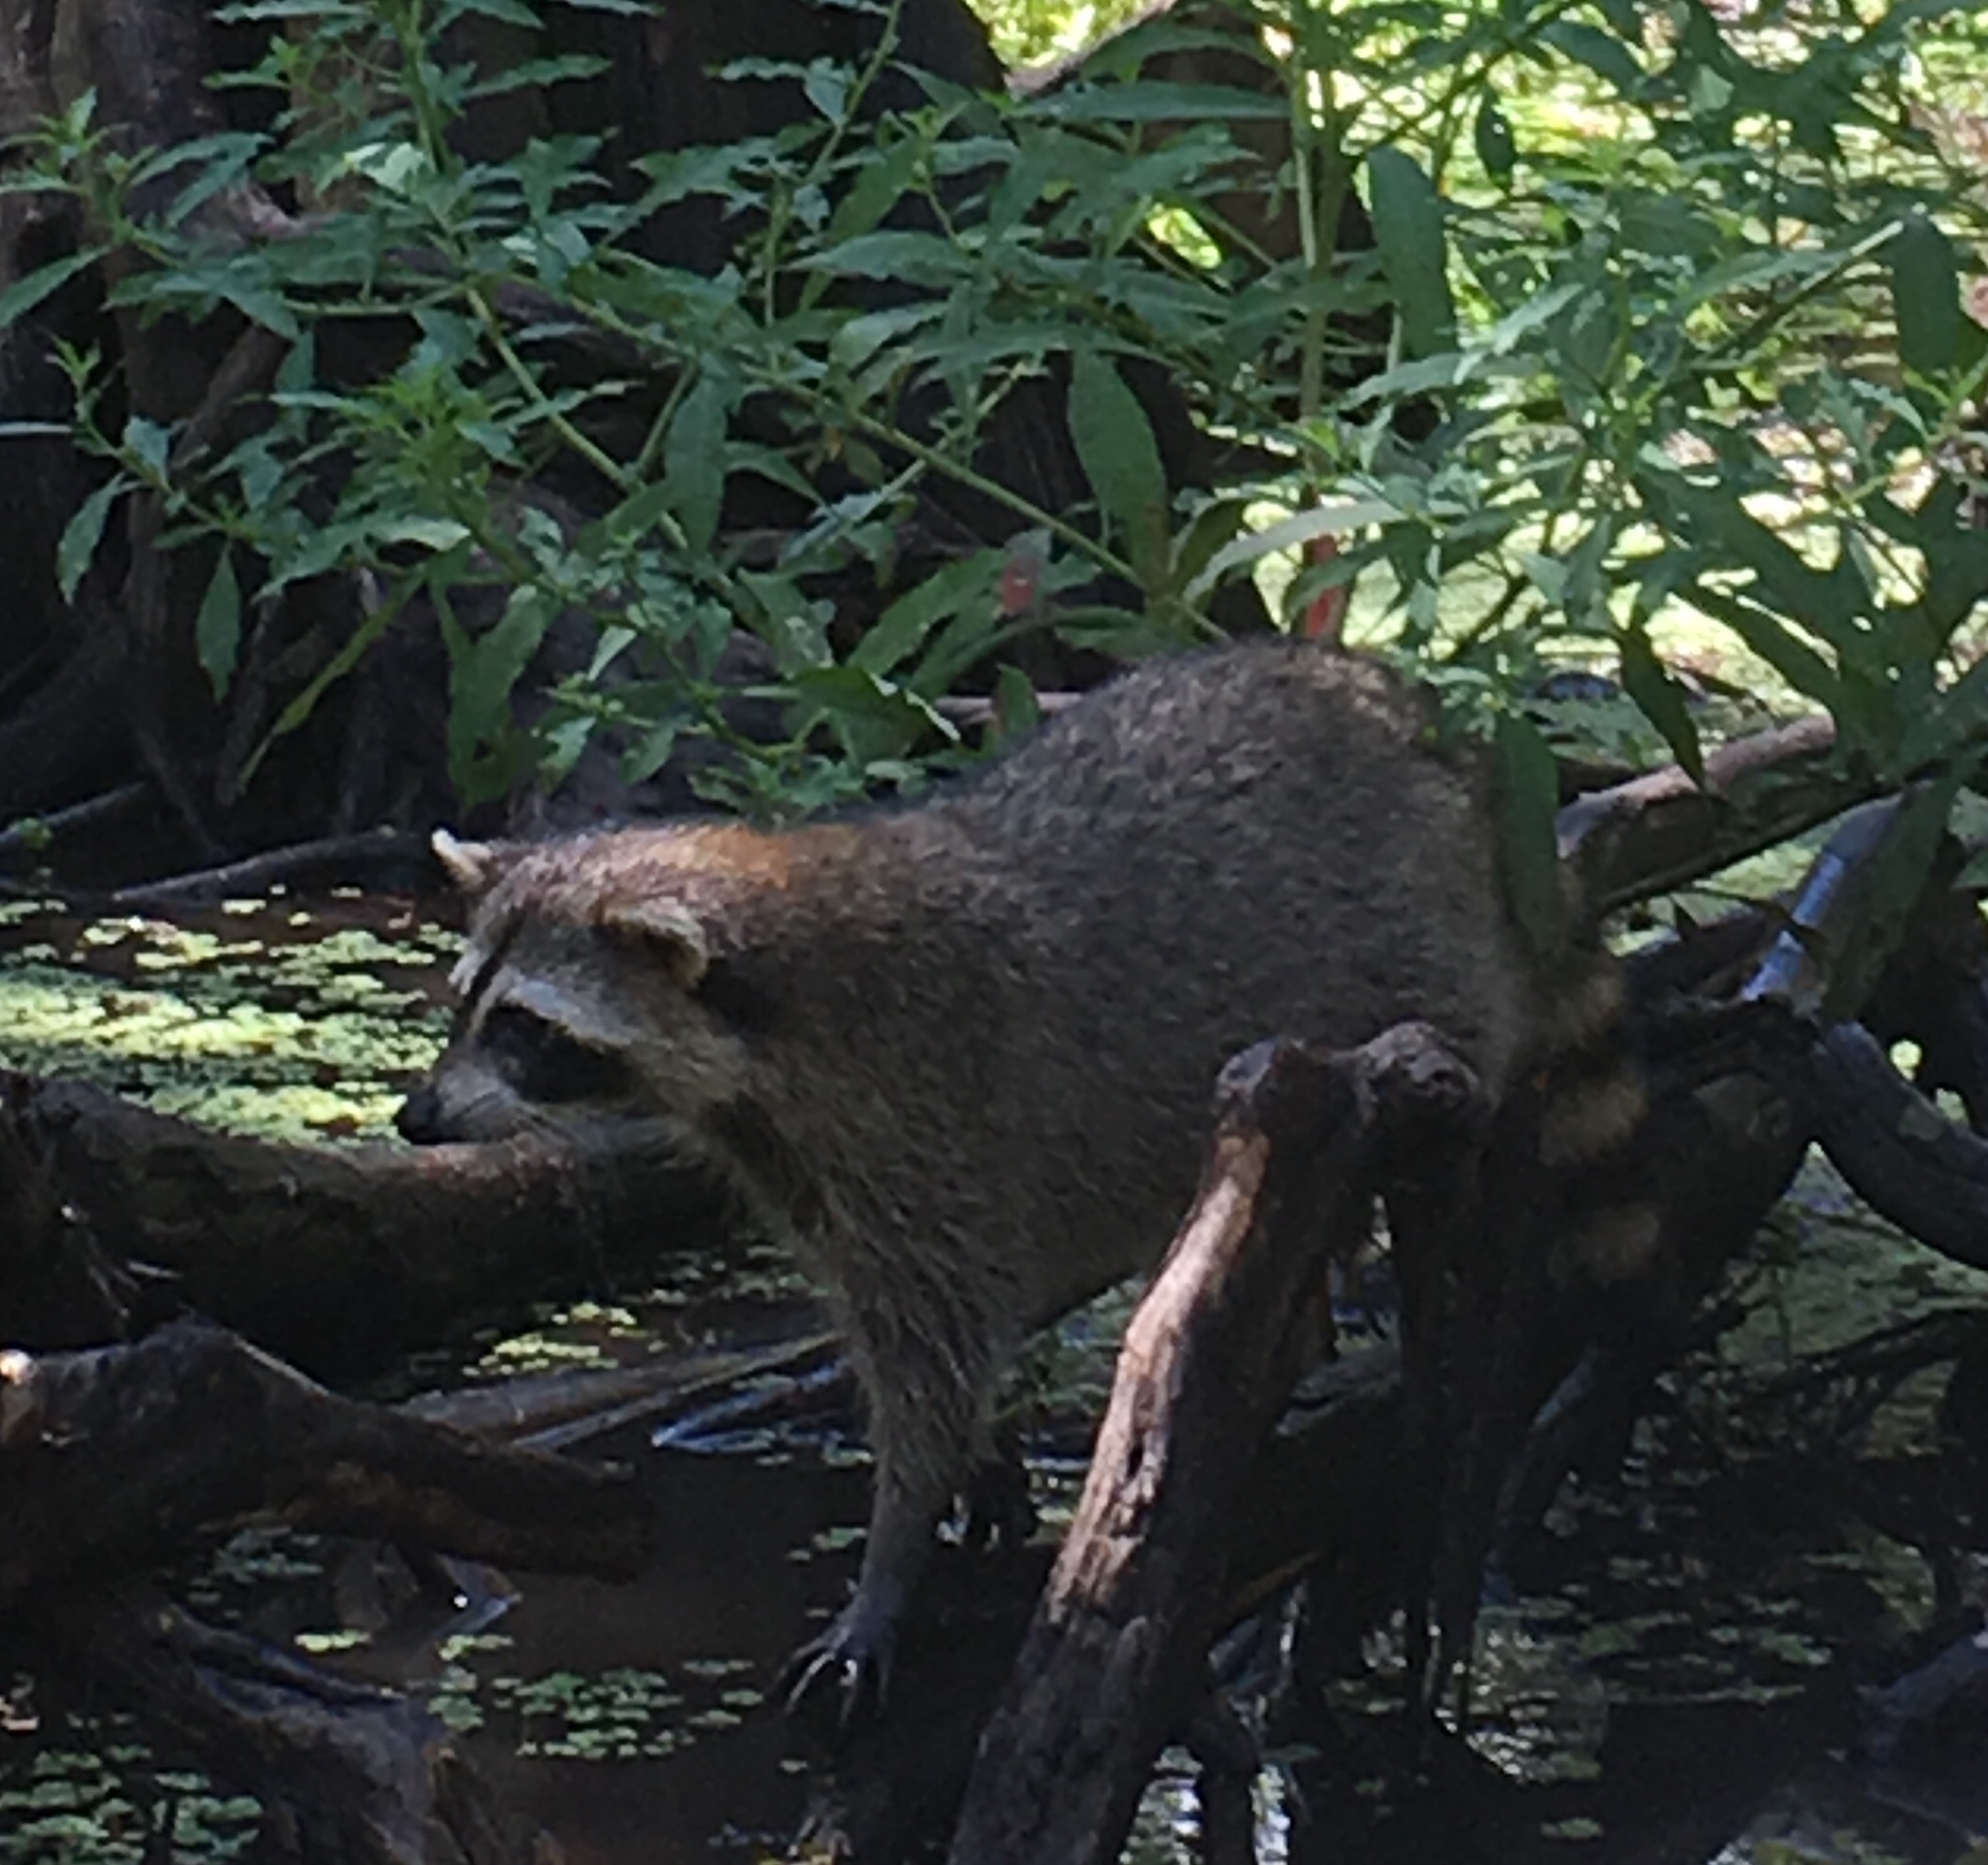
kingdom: Animalia
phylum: Chordata
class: Mammalia
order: Carnivora
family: Procyonidae
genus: Procyon
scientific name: Procyon lotor
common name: Raccoon
